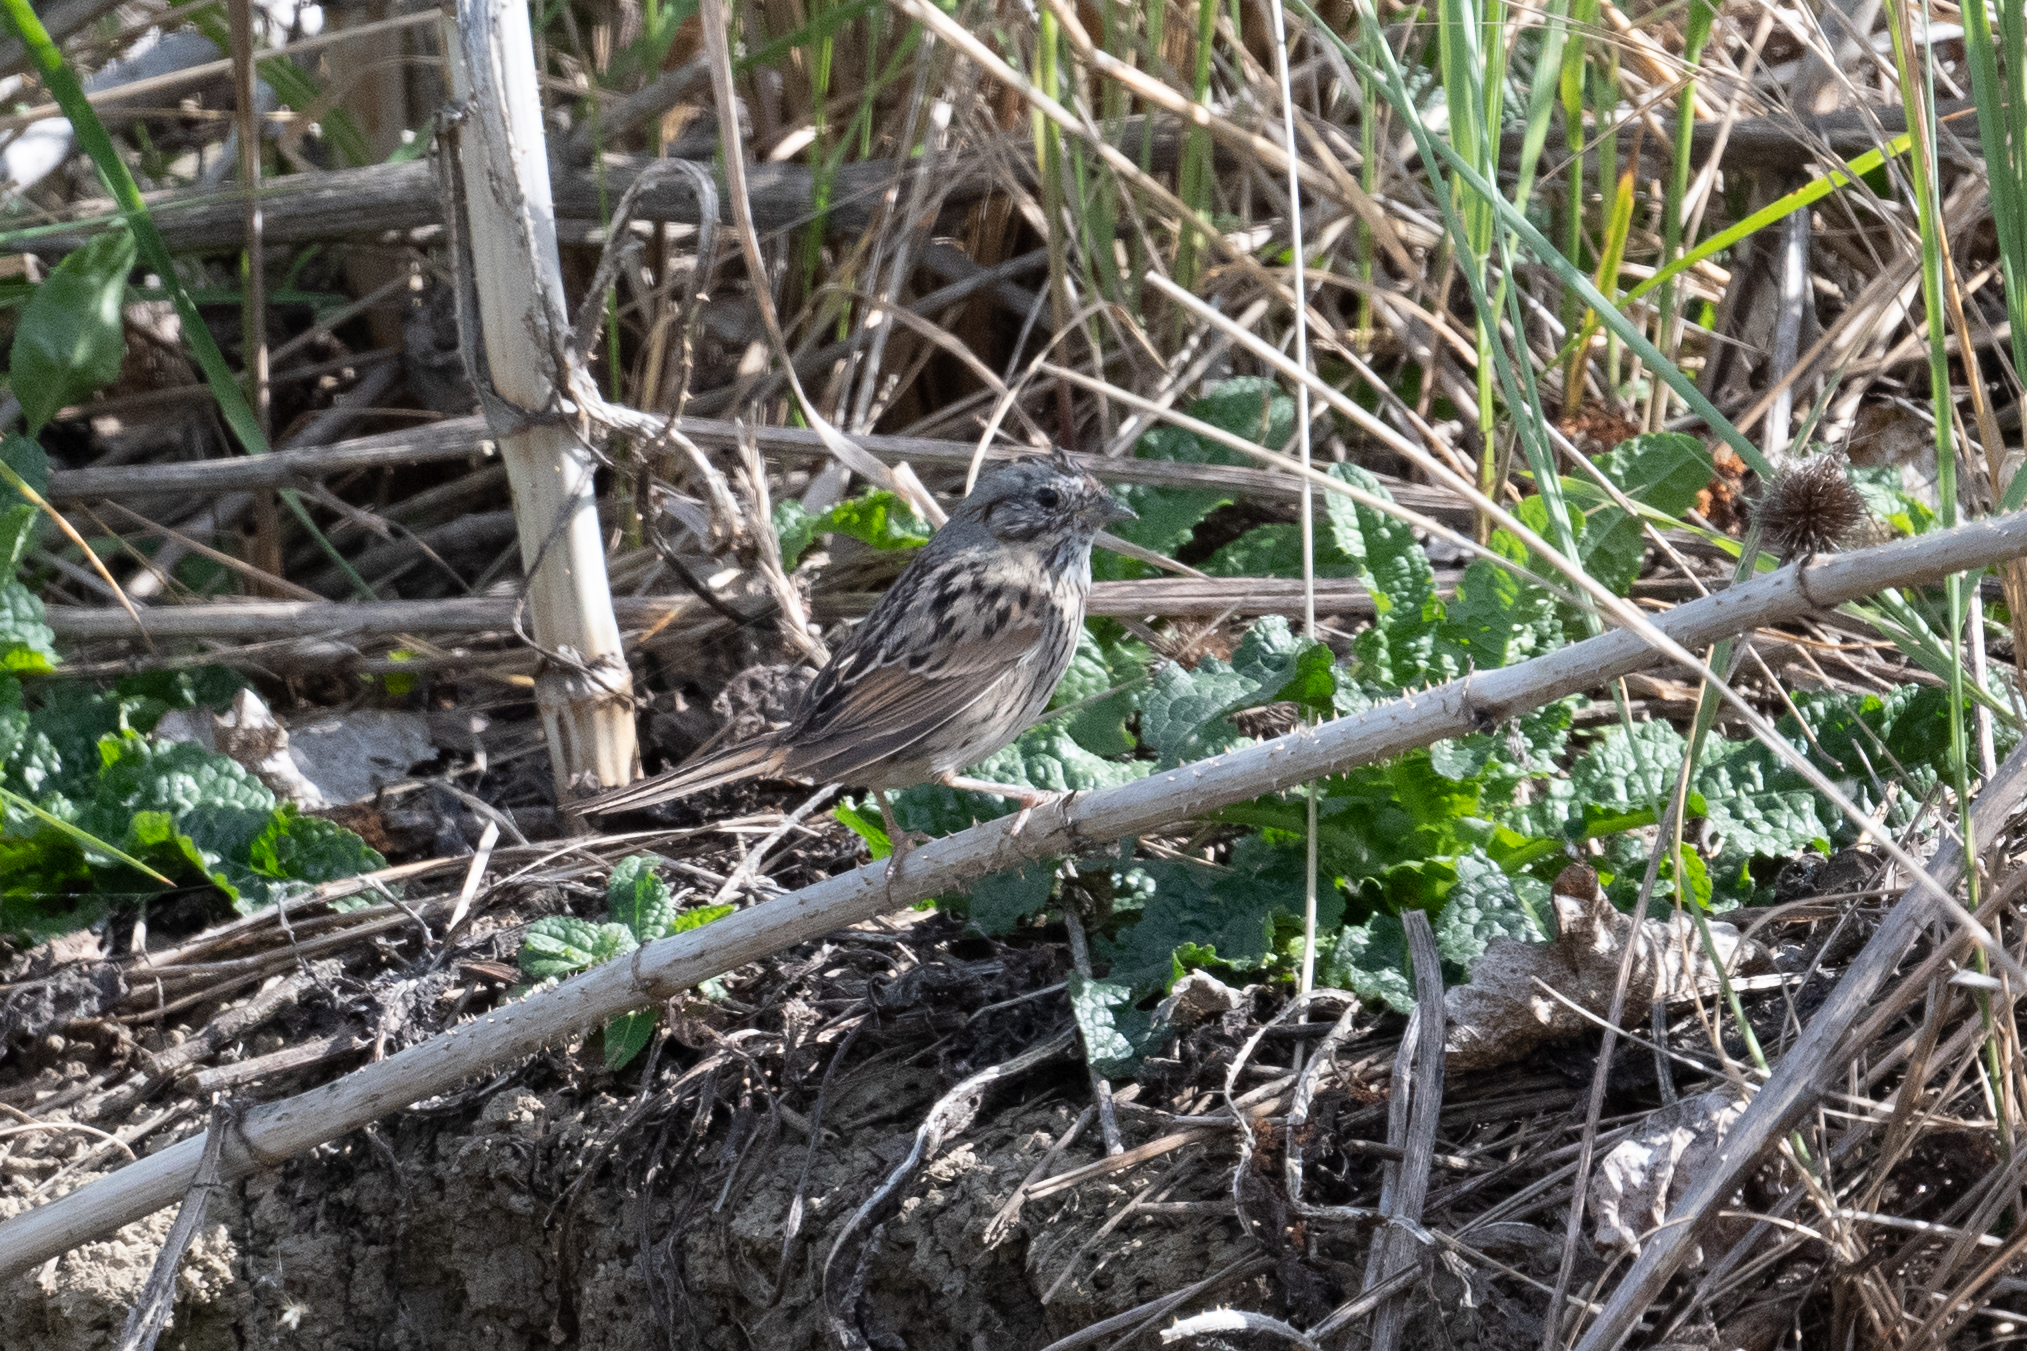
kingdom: Animalia
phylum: Chordata
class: Aves
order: Passeriformes
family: Passerellidae
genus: Melospiza
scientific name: Melospiza lincolnii
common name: Lincoln's sparrow
